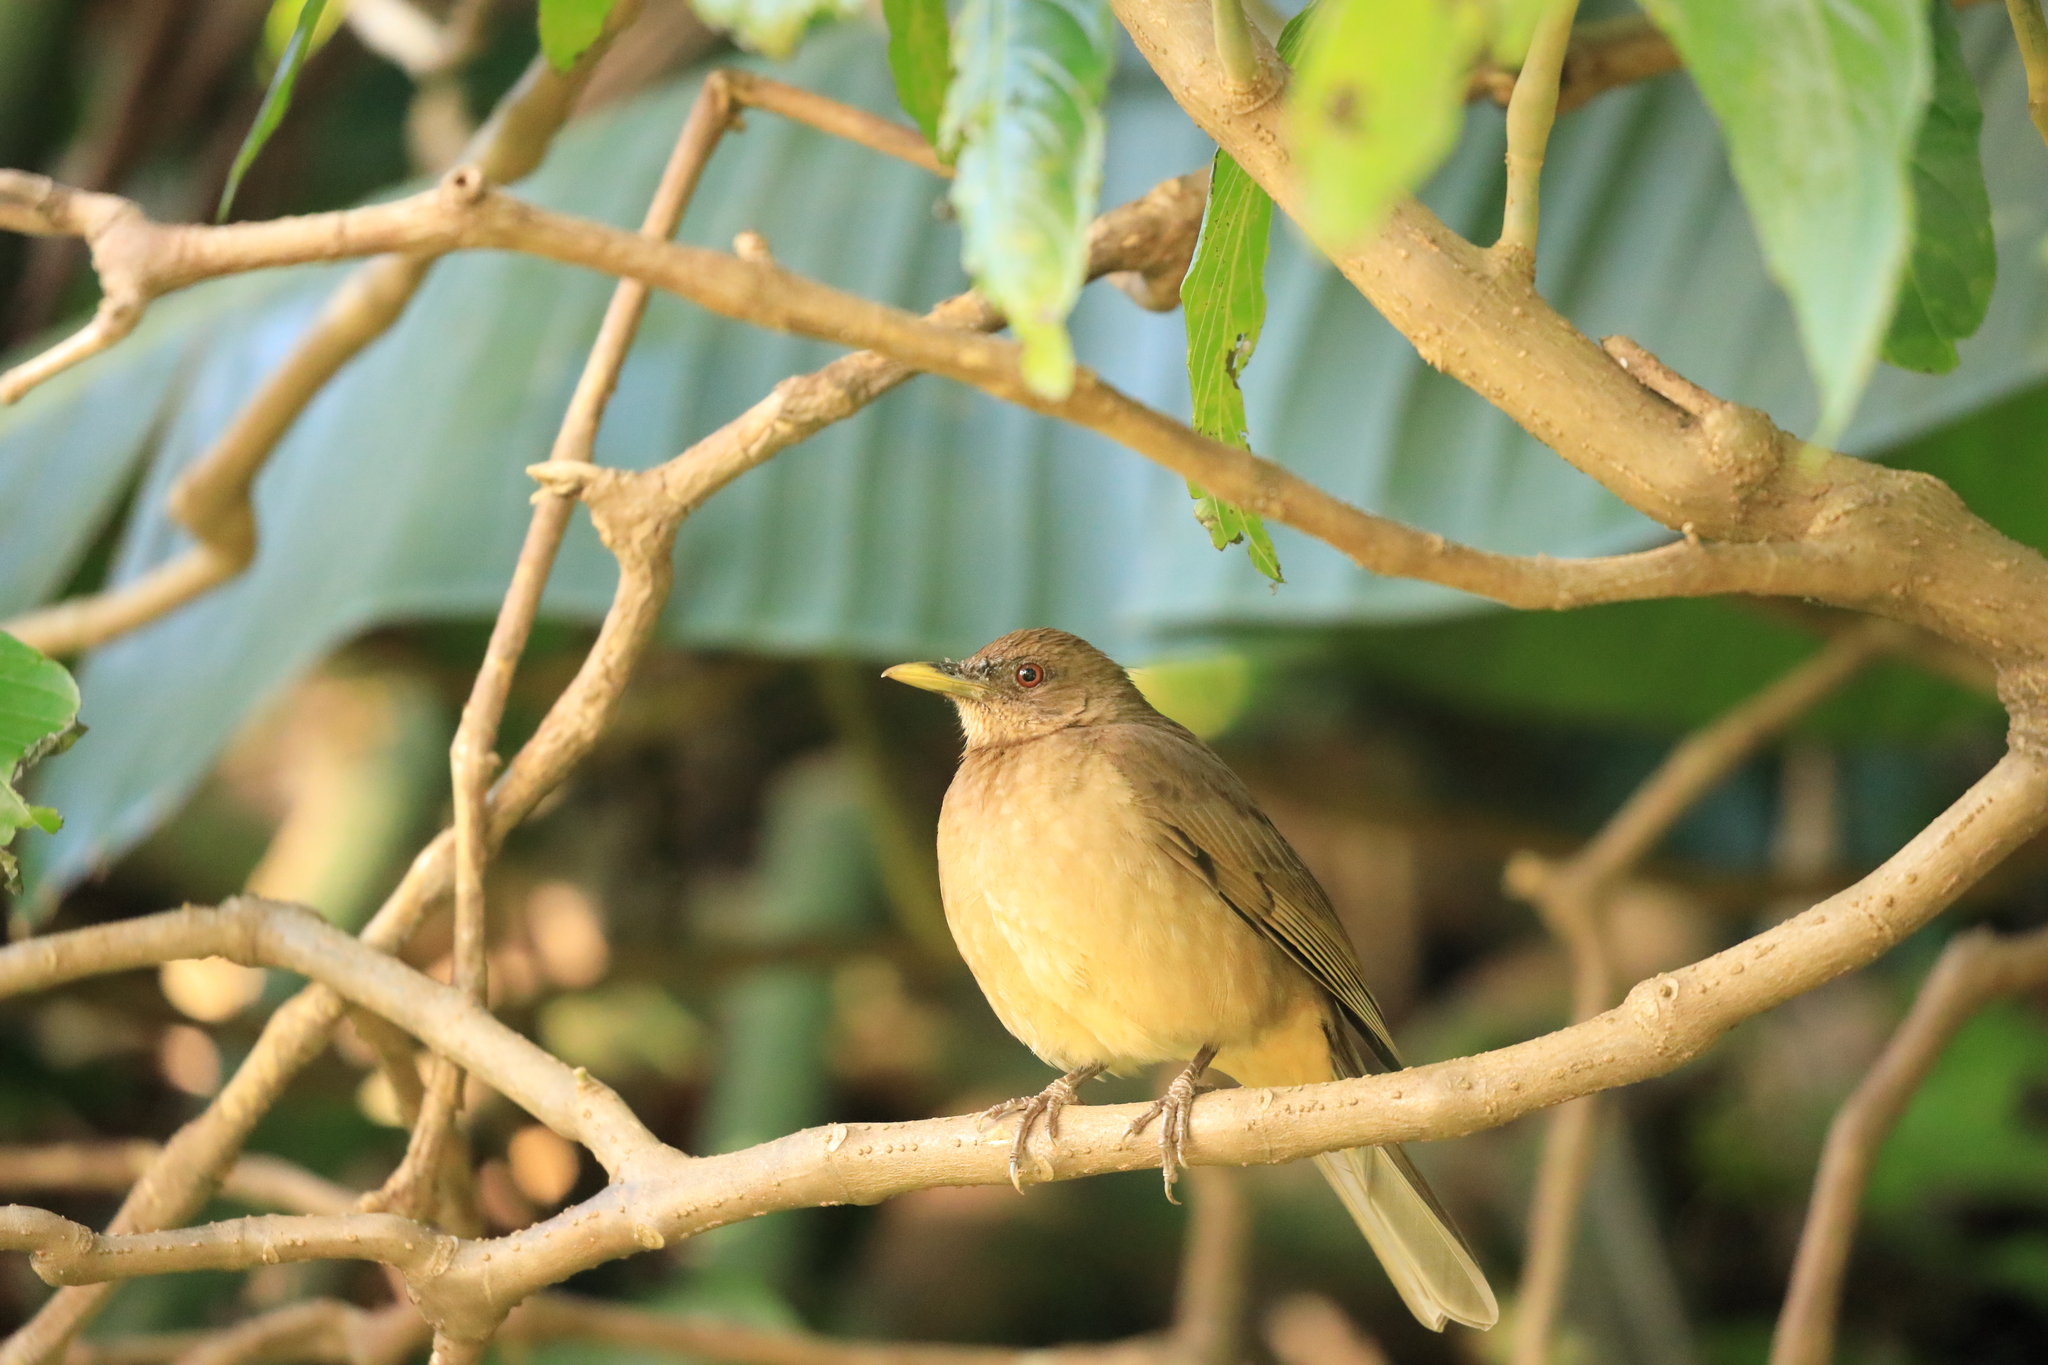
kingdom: Animalia
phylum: Chordata
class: Aves
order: Passeriformes
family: Turdidae
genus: Turdus
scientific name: Turdus grayi
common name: Clay-colored thrush
